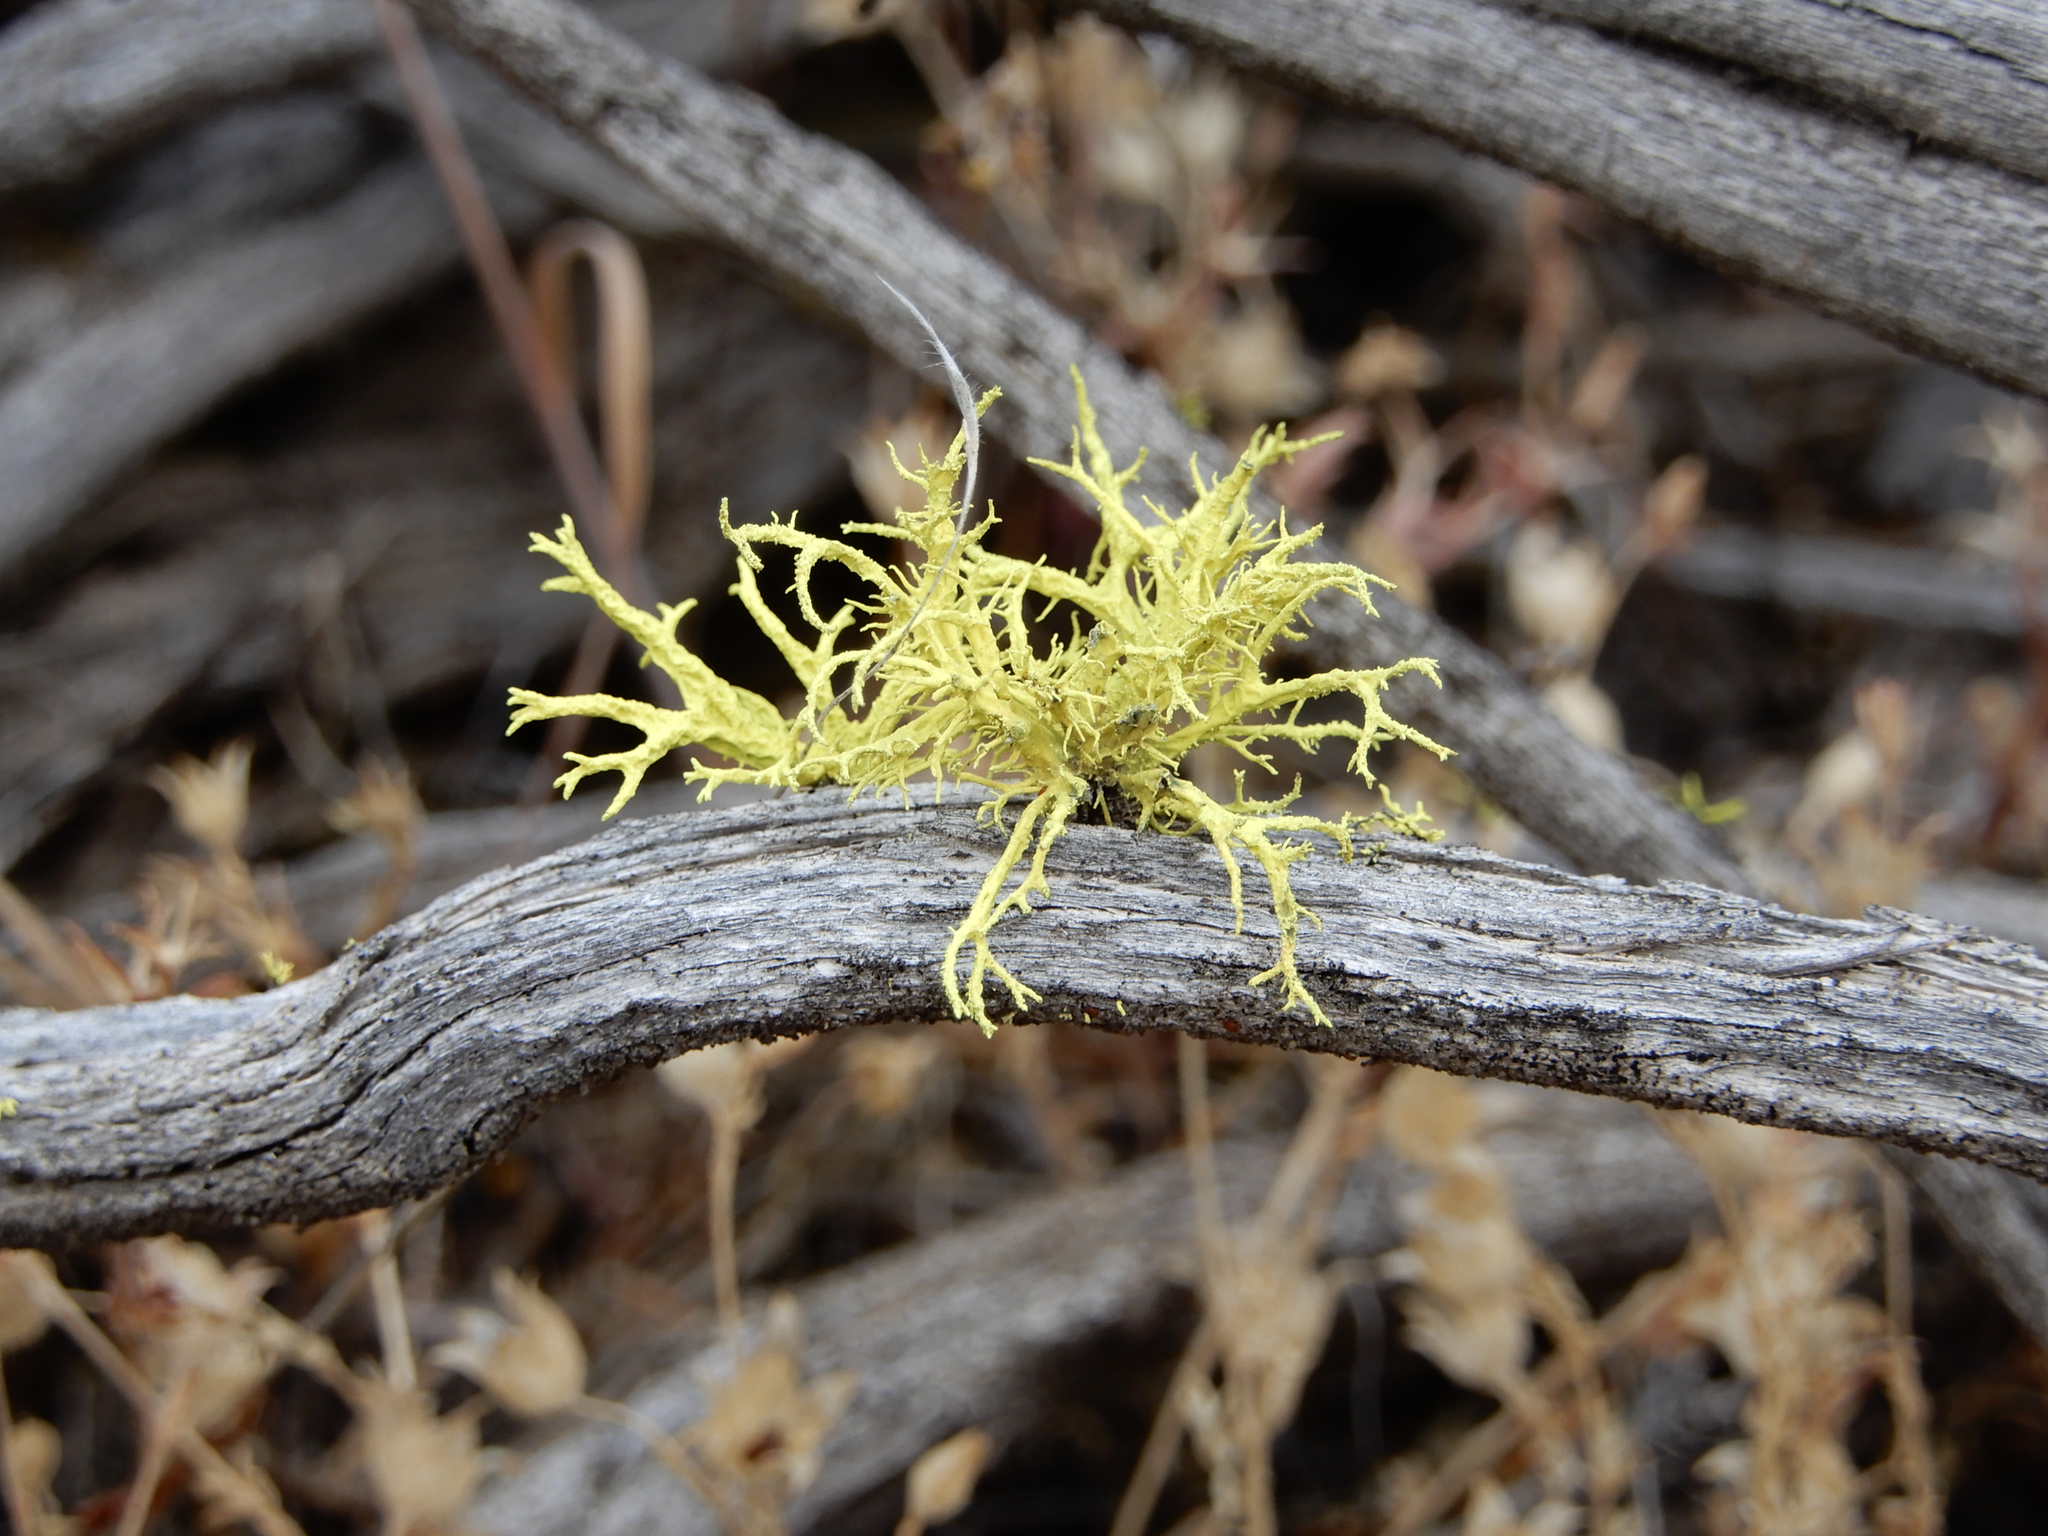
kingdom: Fungi
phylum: Ascomycota
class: Lecanoromycetes
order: Lecanorales
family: Parmeliaceae
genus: Letharia
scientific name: Letharia vulpina
